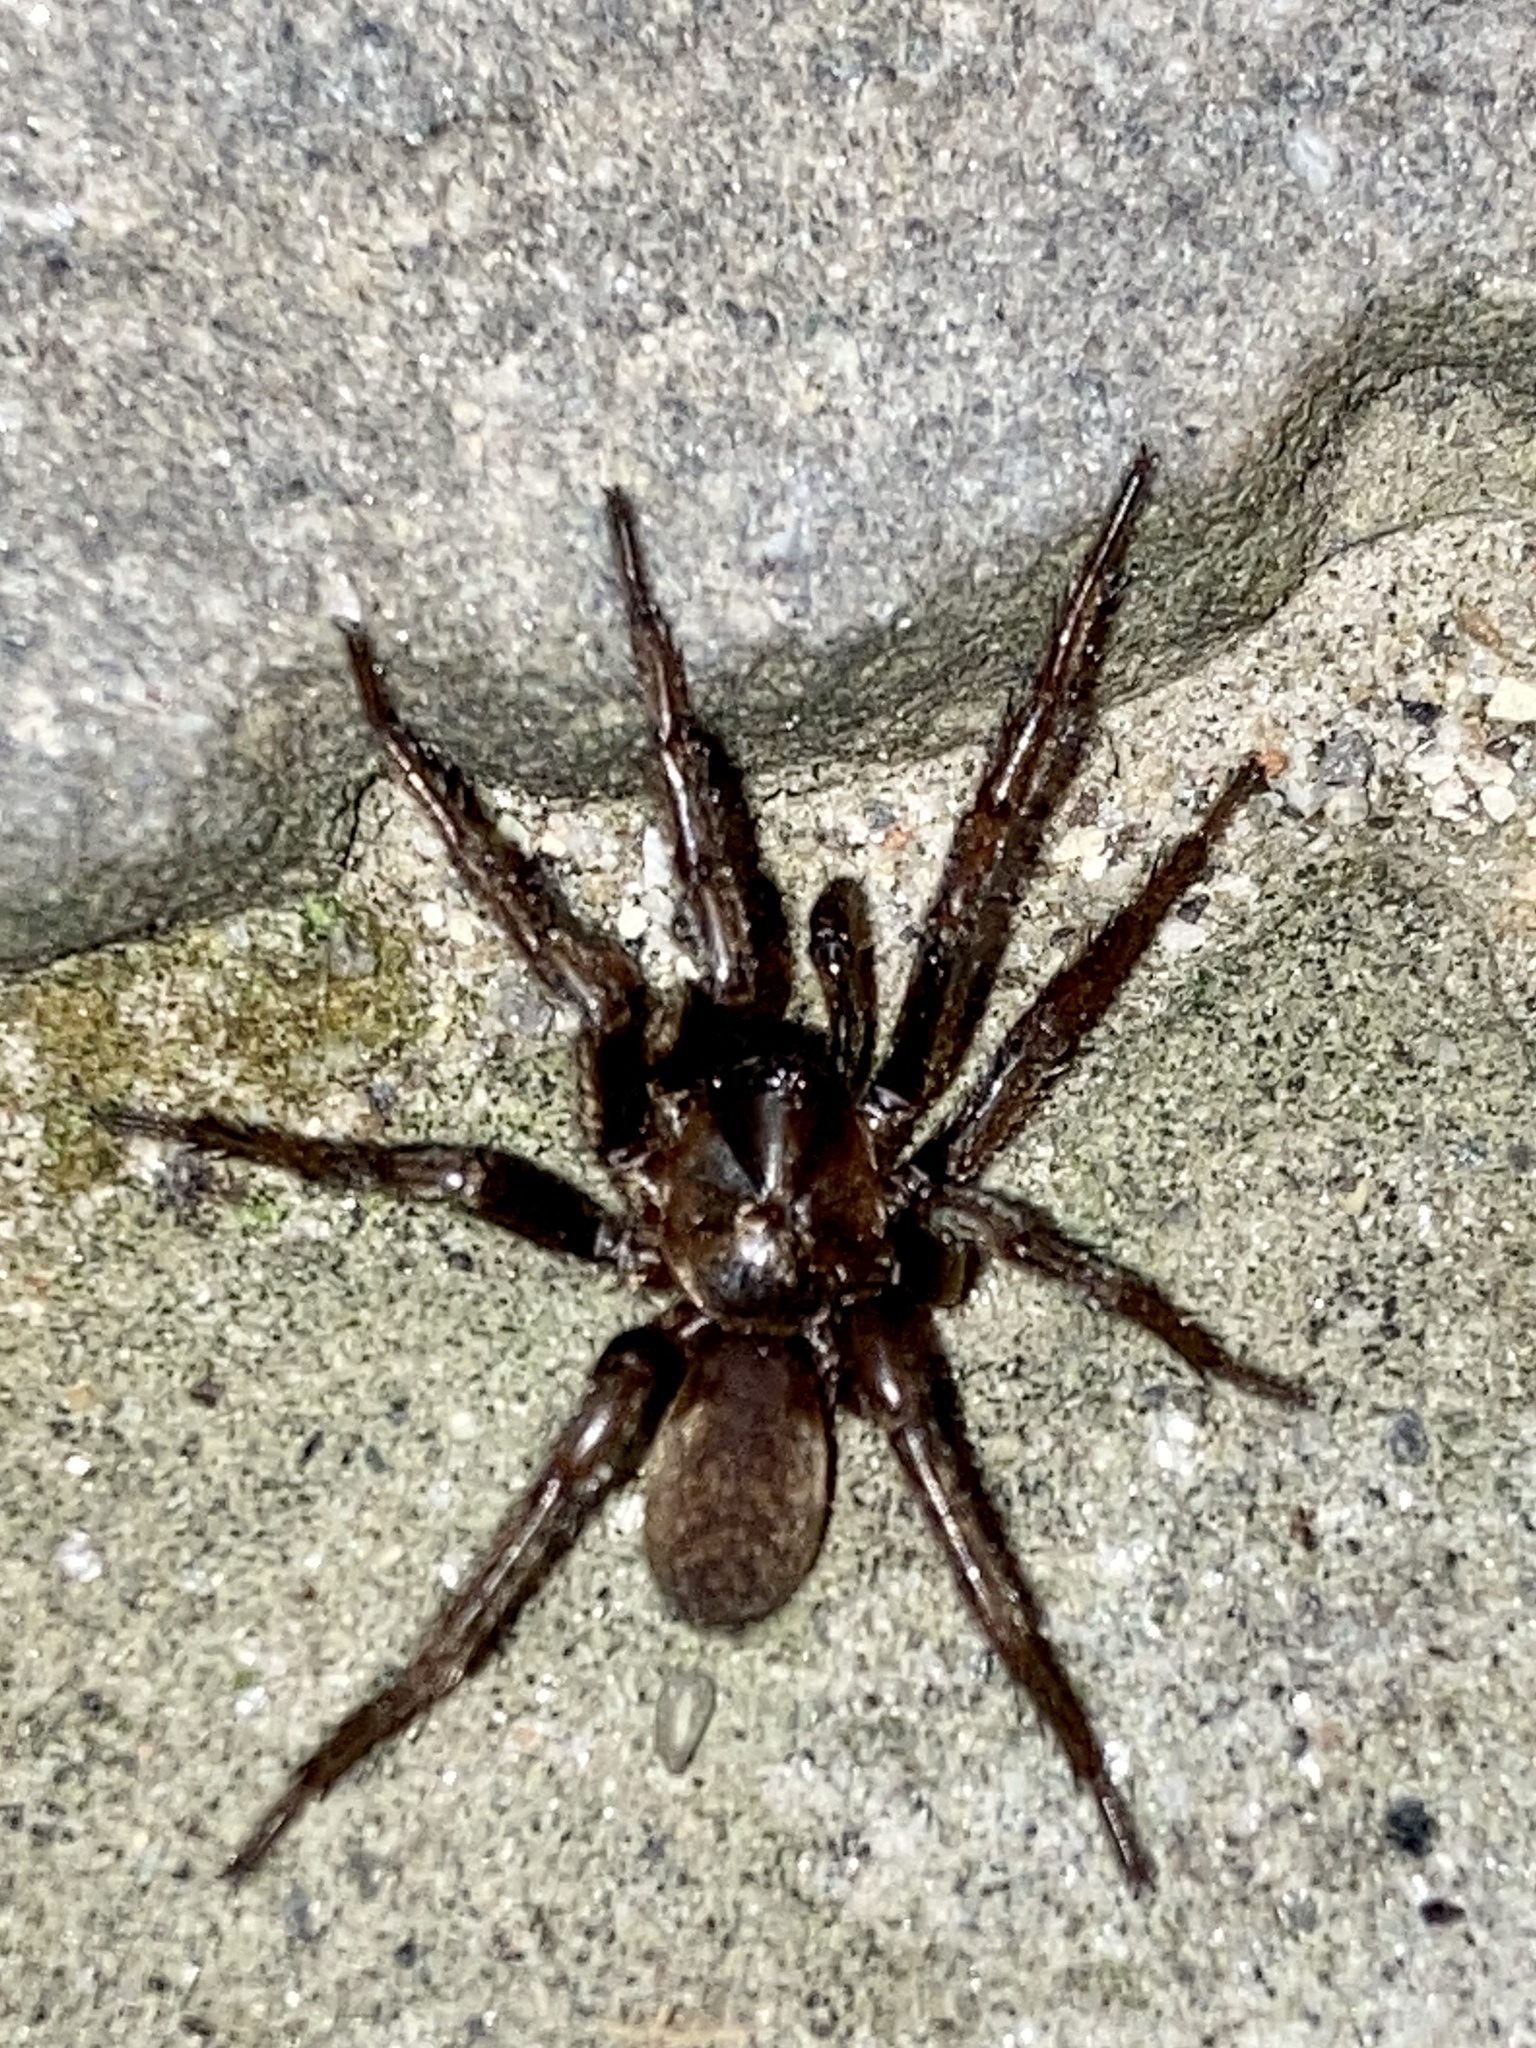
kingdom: Animalia
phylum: Arthropoda
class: Arachnida
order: Araneae
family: Nemesiidae
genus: Nemesia
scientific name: Nemesia
